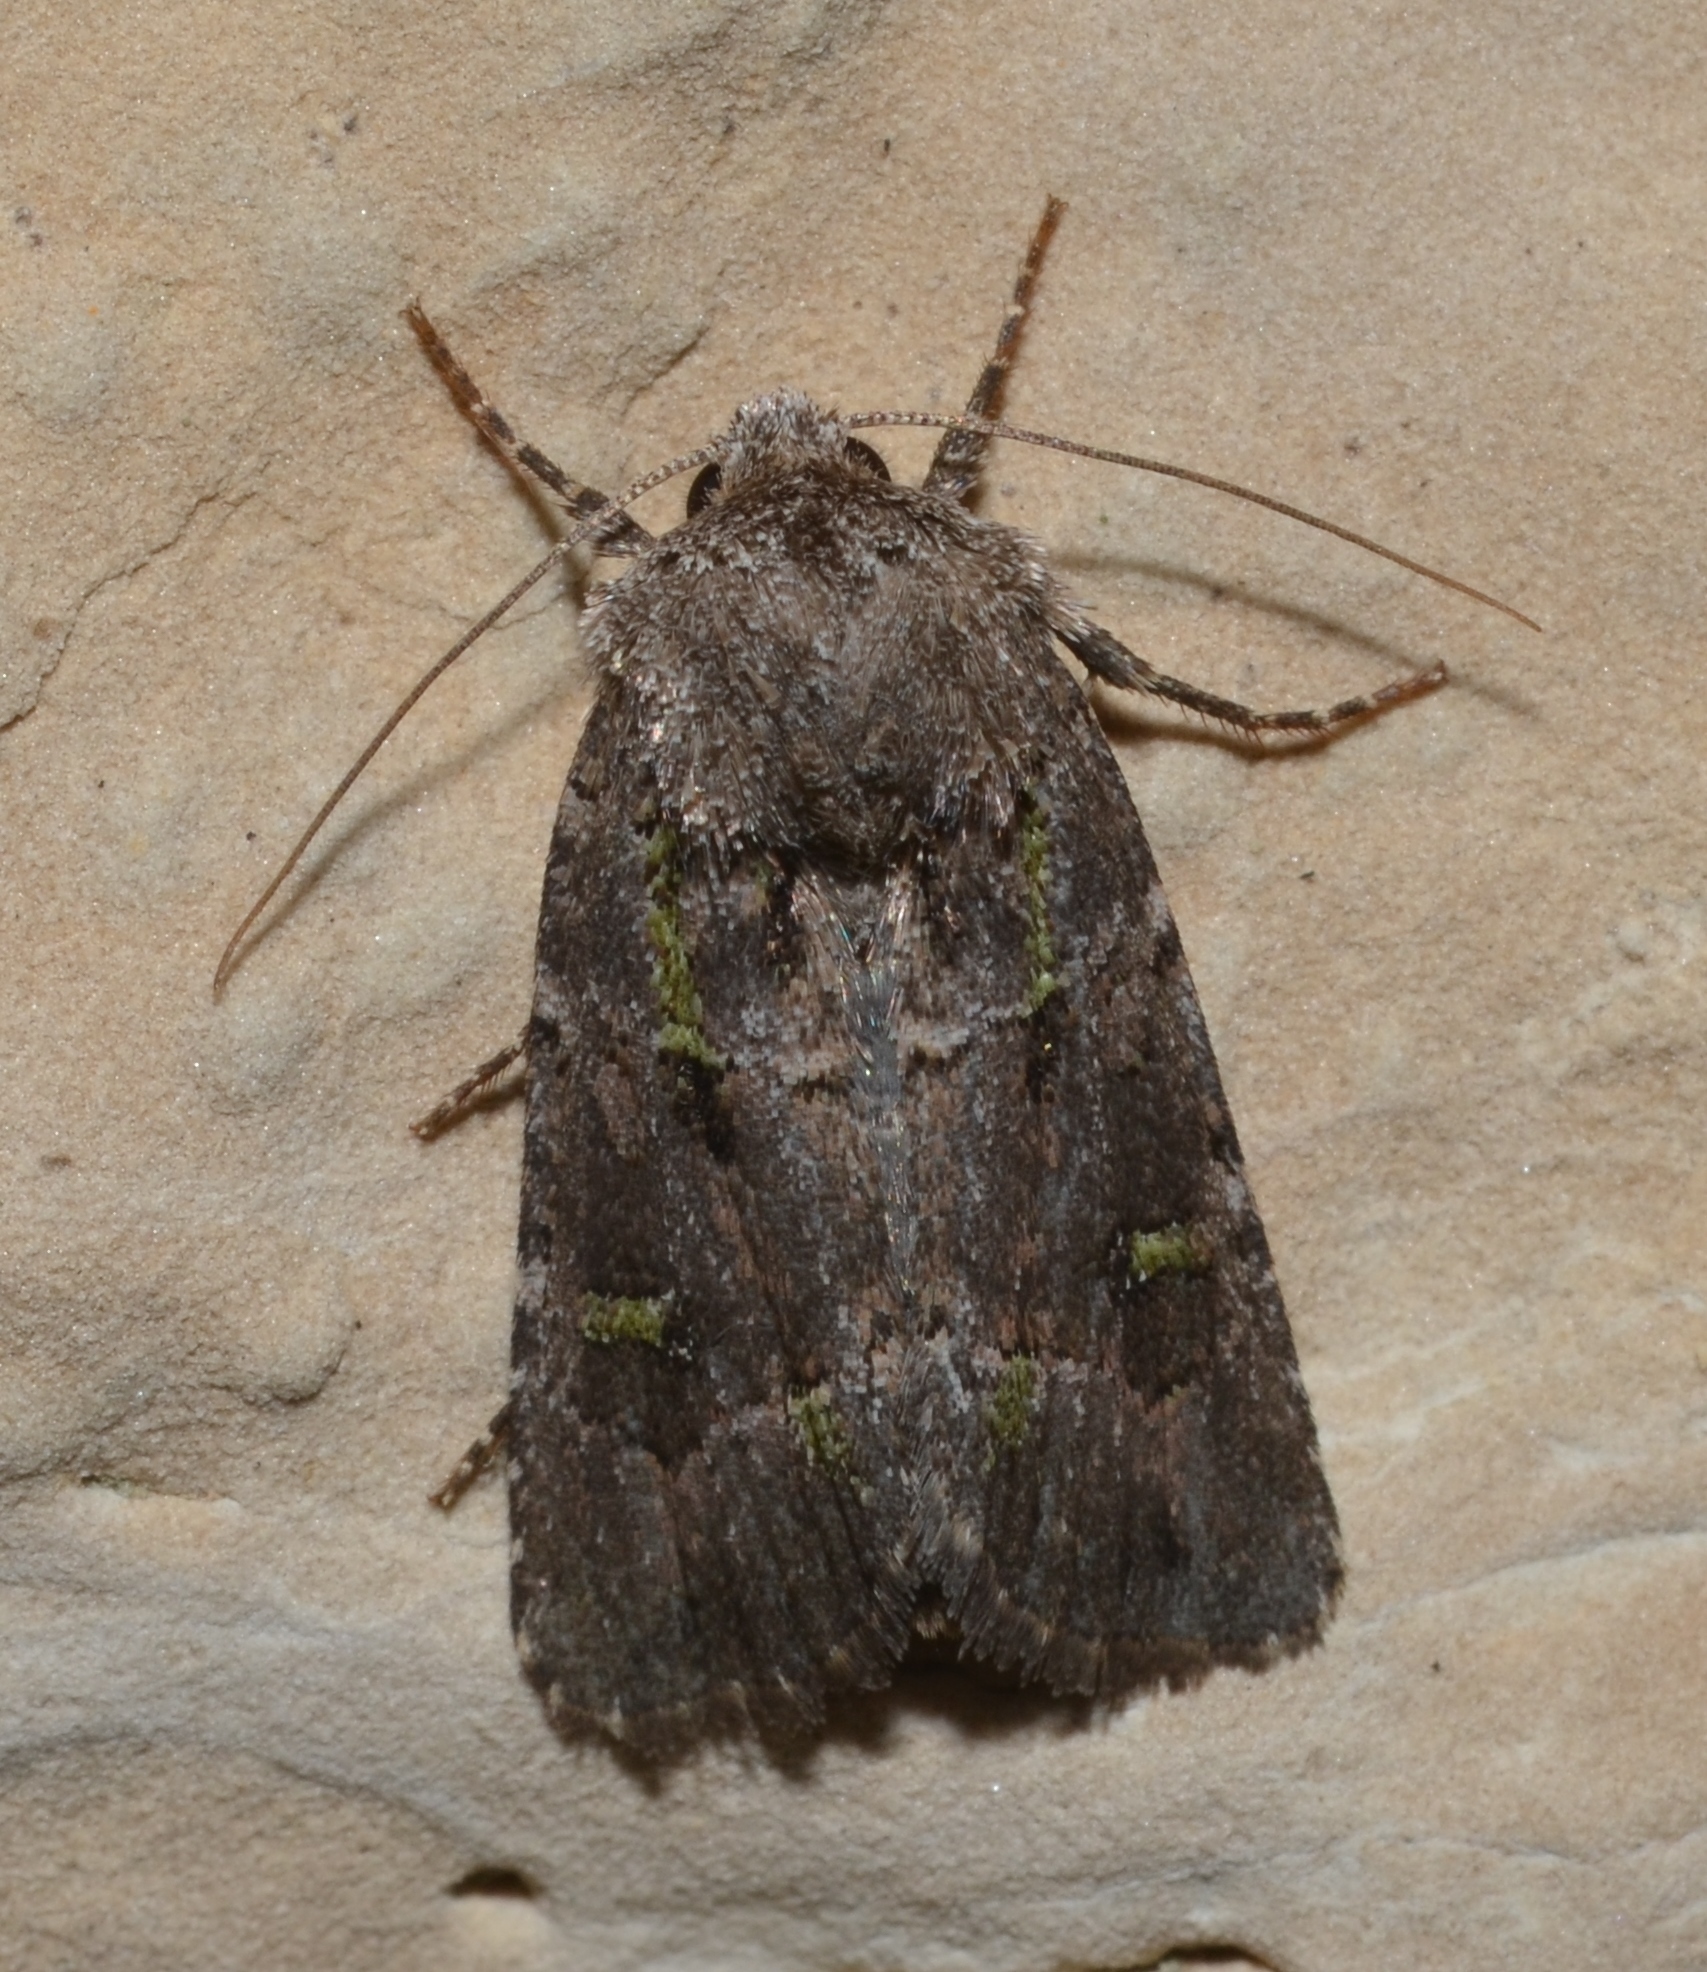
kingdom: Animalia
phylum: Arthropoda
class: Insecta
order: Lepidoptera
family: Noctuidae
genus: Lacinipolia
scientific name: Lacinipolia renigera
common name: Kidney-spotted minor
